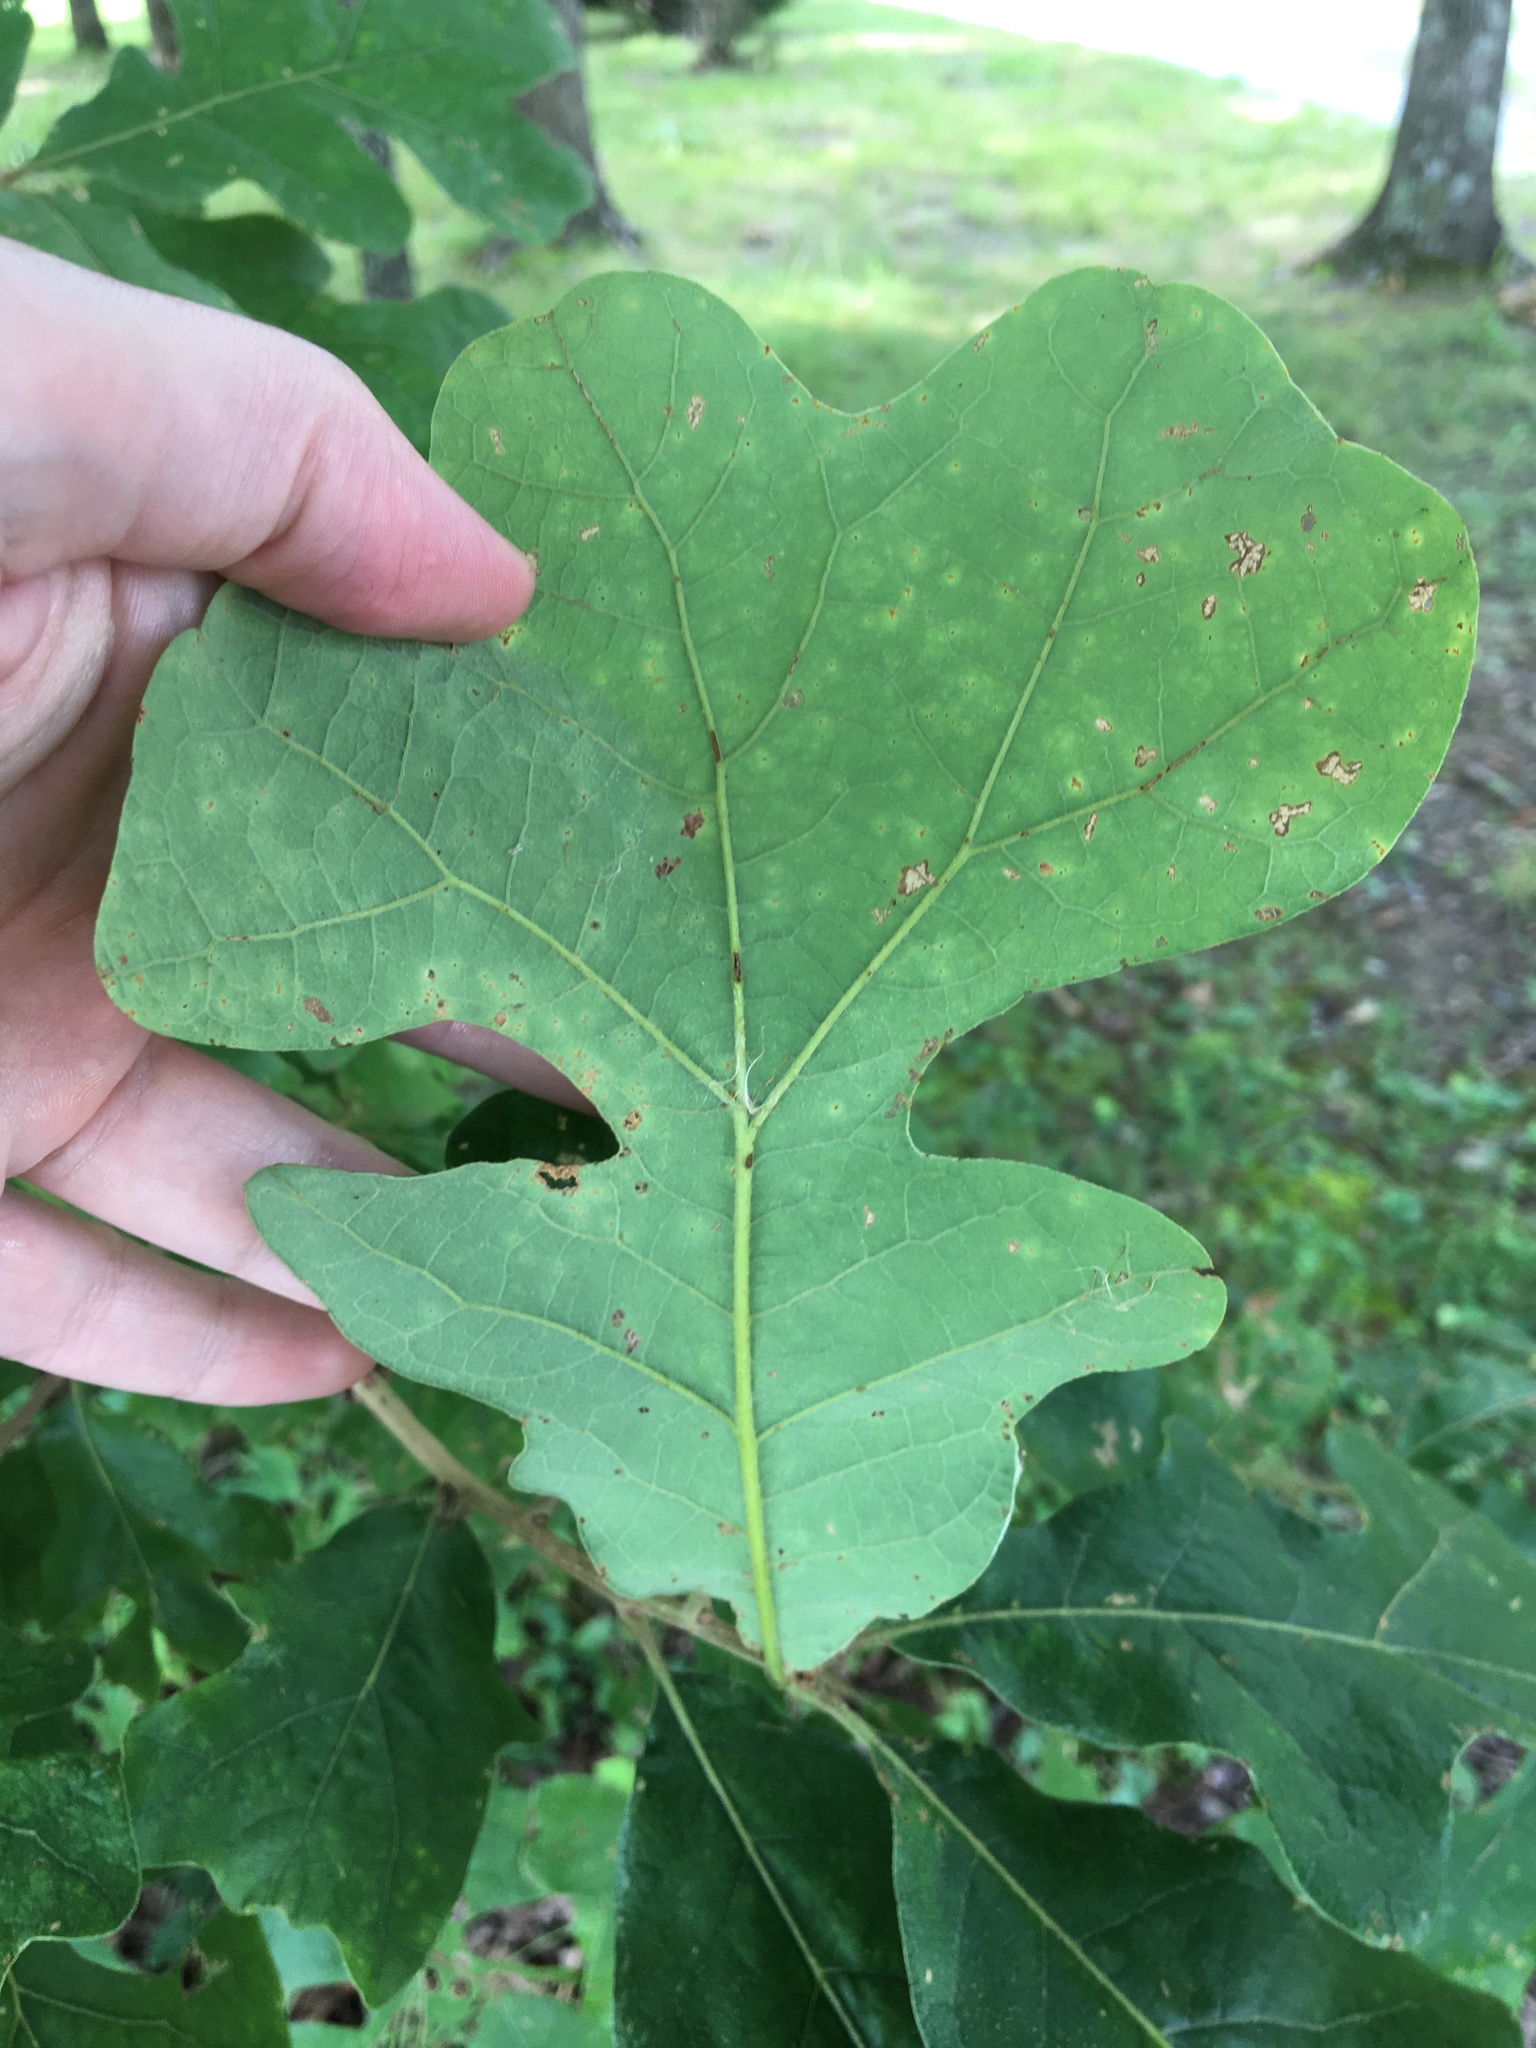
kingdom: Plantae
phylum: Tracheophyta
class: Magnoliopsida
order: Fagales
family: Fagaceae
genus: Quercus
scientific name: Quercus stellata
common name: Post oak
